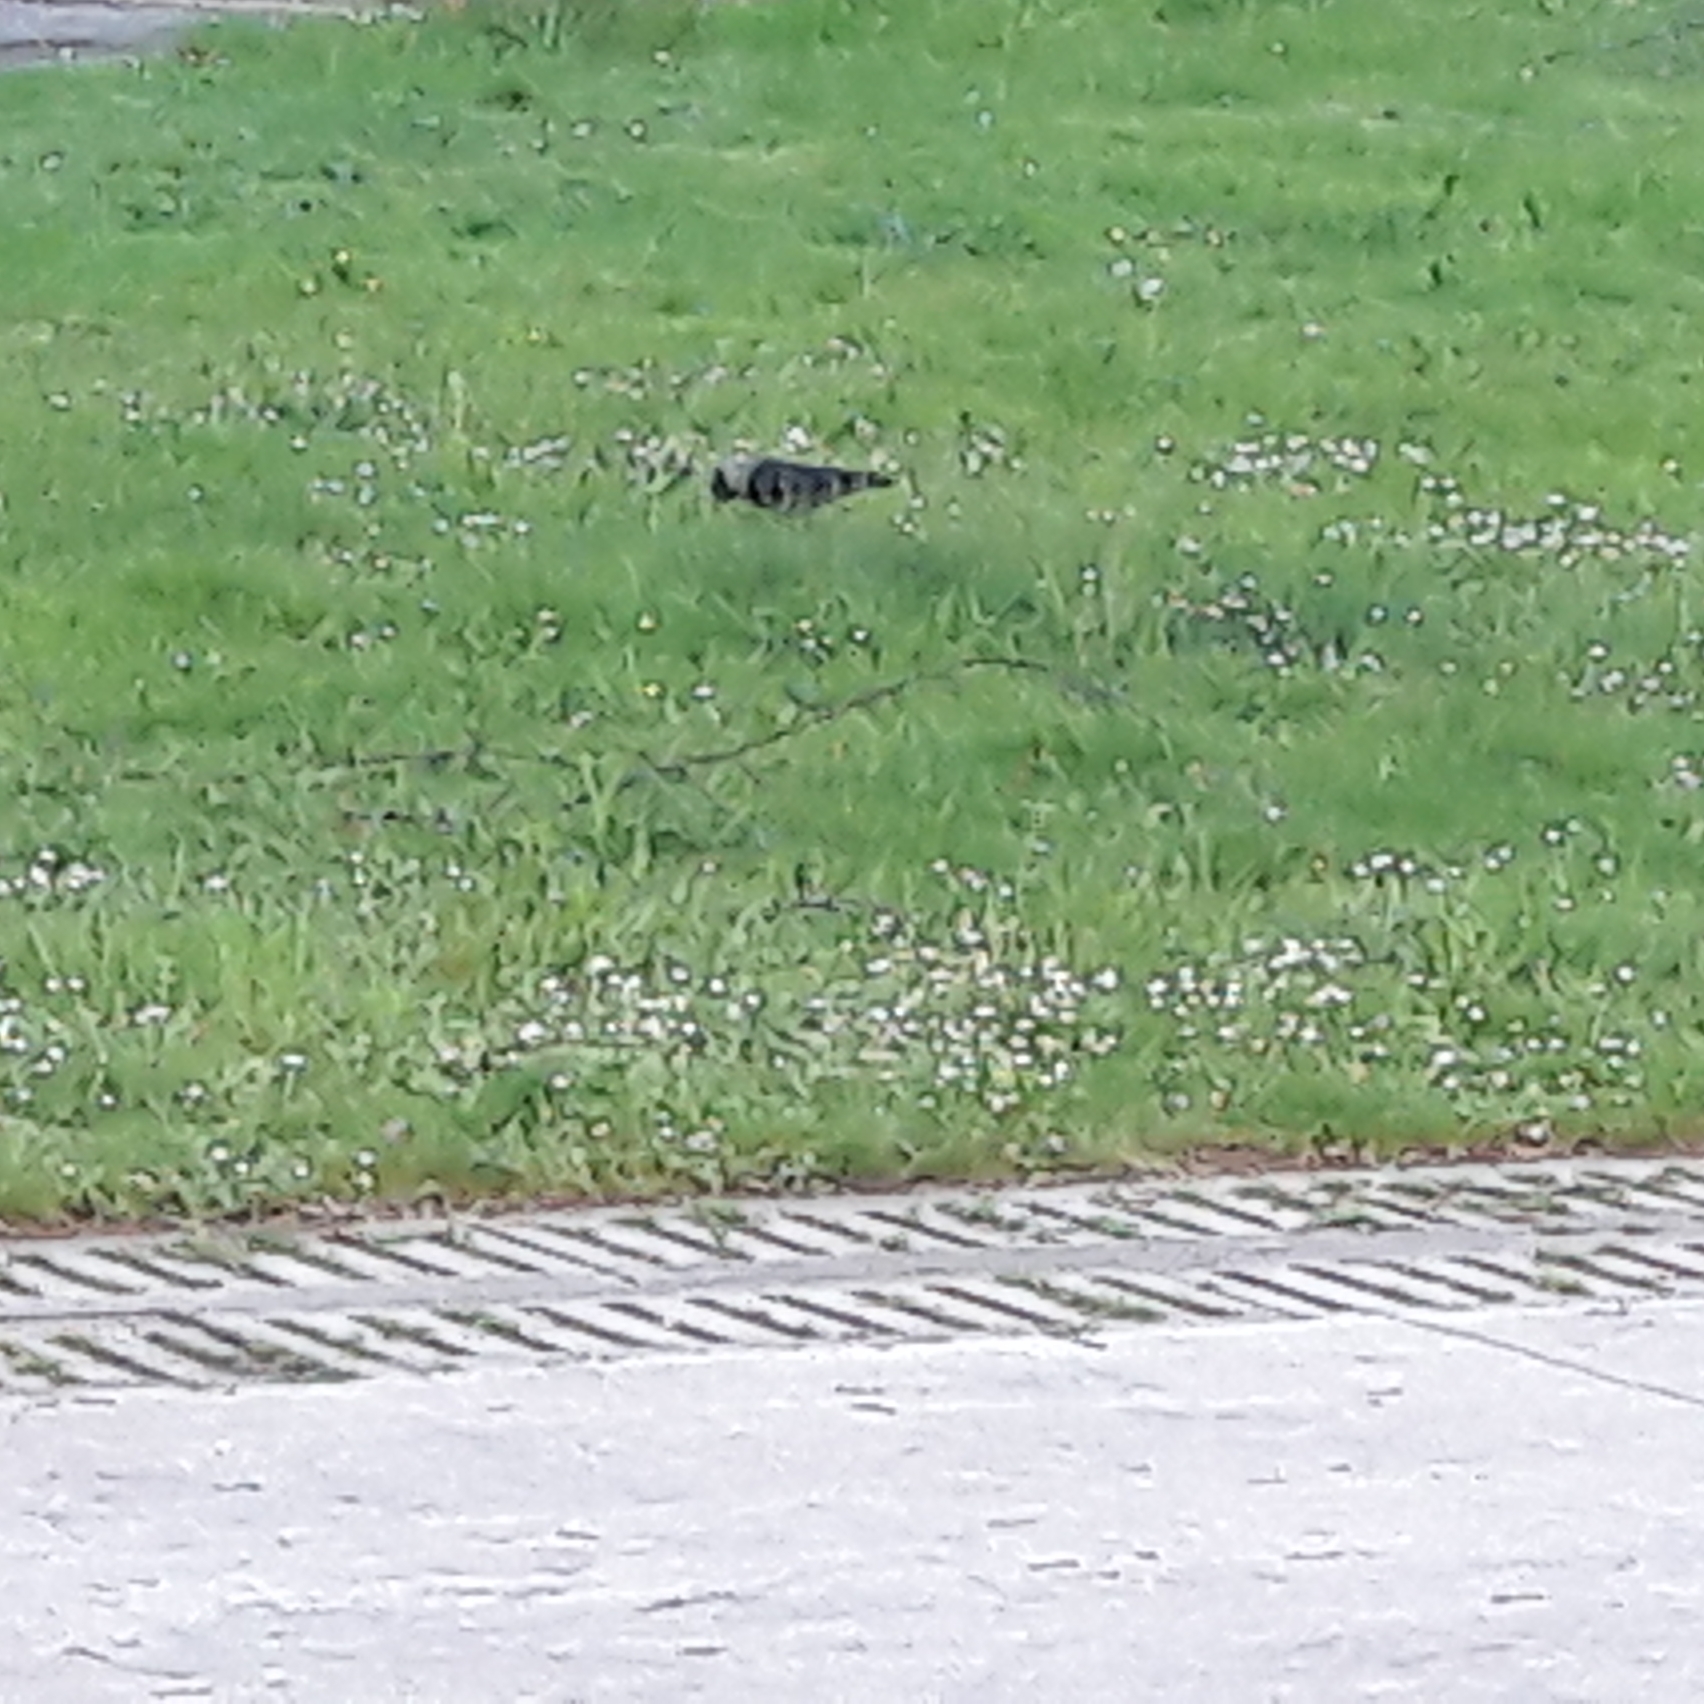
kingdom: Animalia
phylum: Chordata
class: Aves
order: Passeriformes
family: Corvidae
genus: Coloeus
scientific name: Coloeus monedula
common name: Western jackdaw
